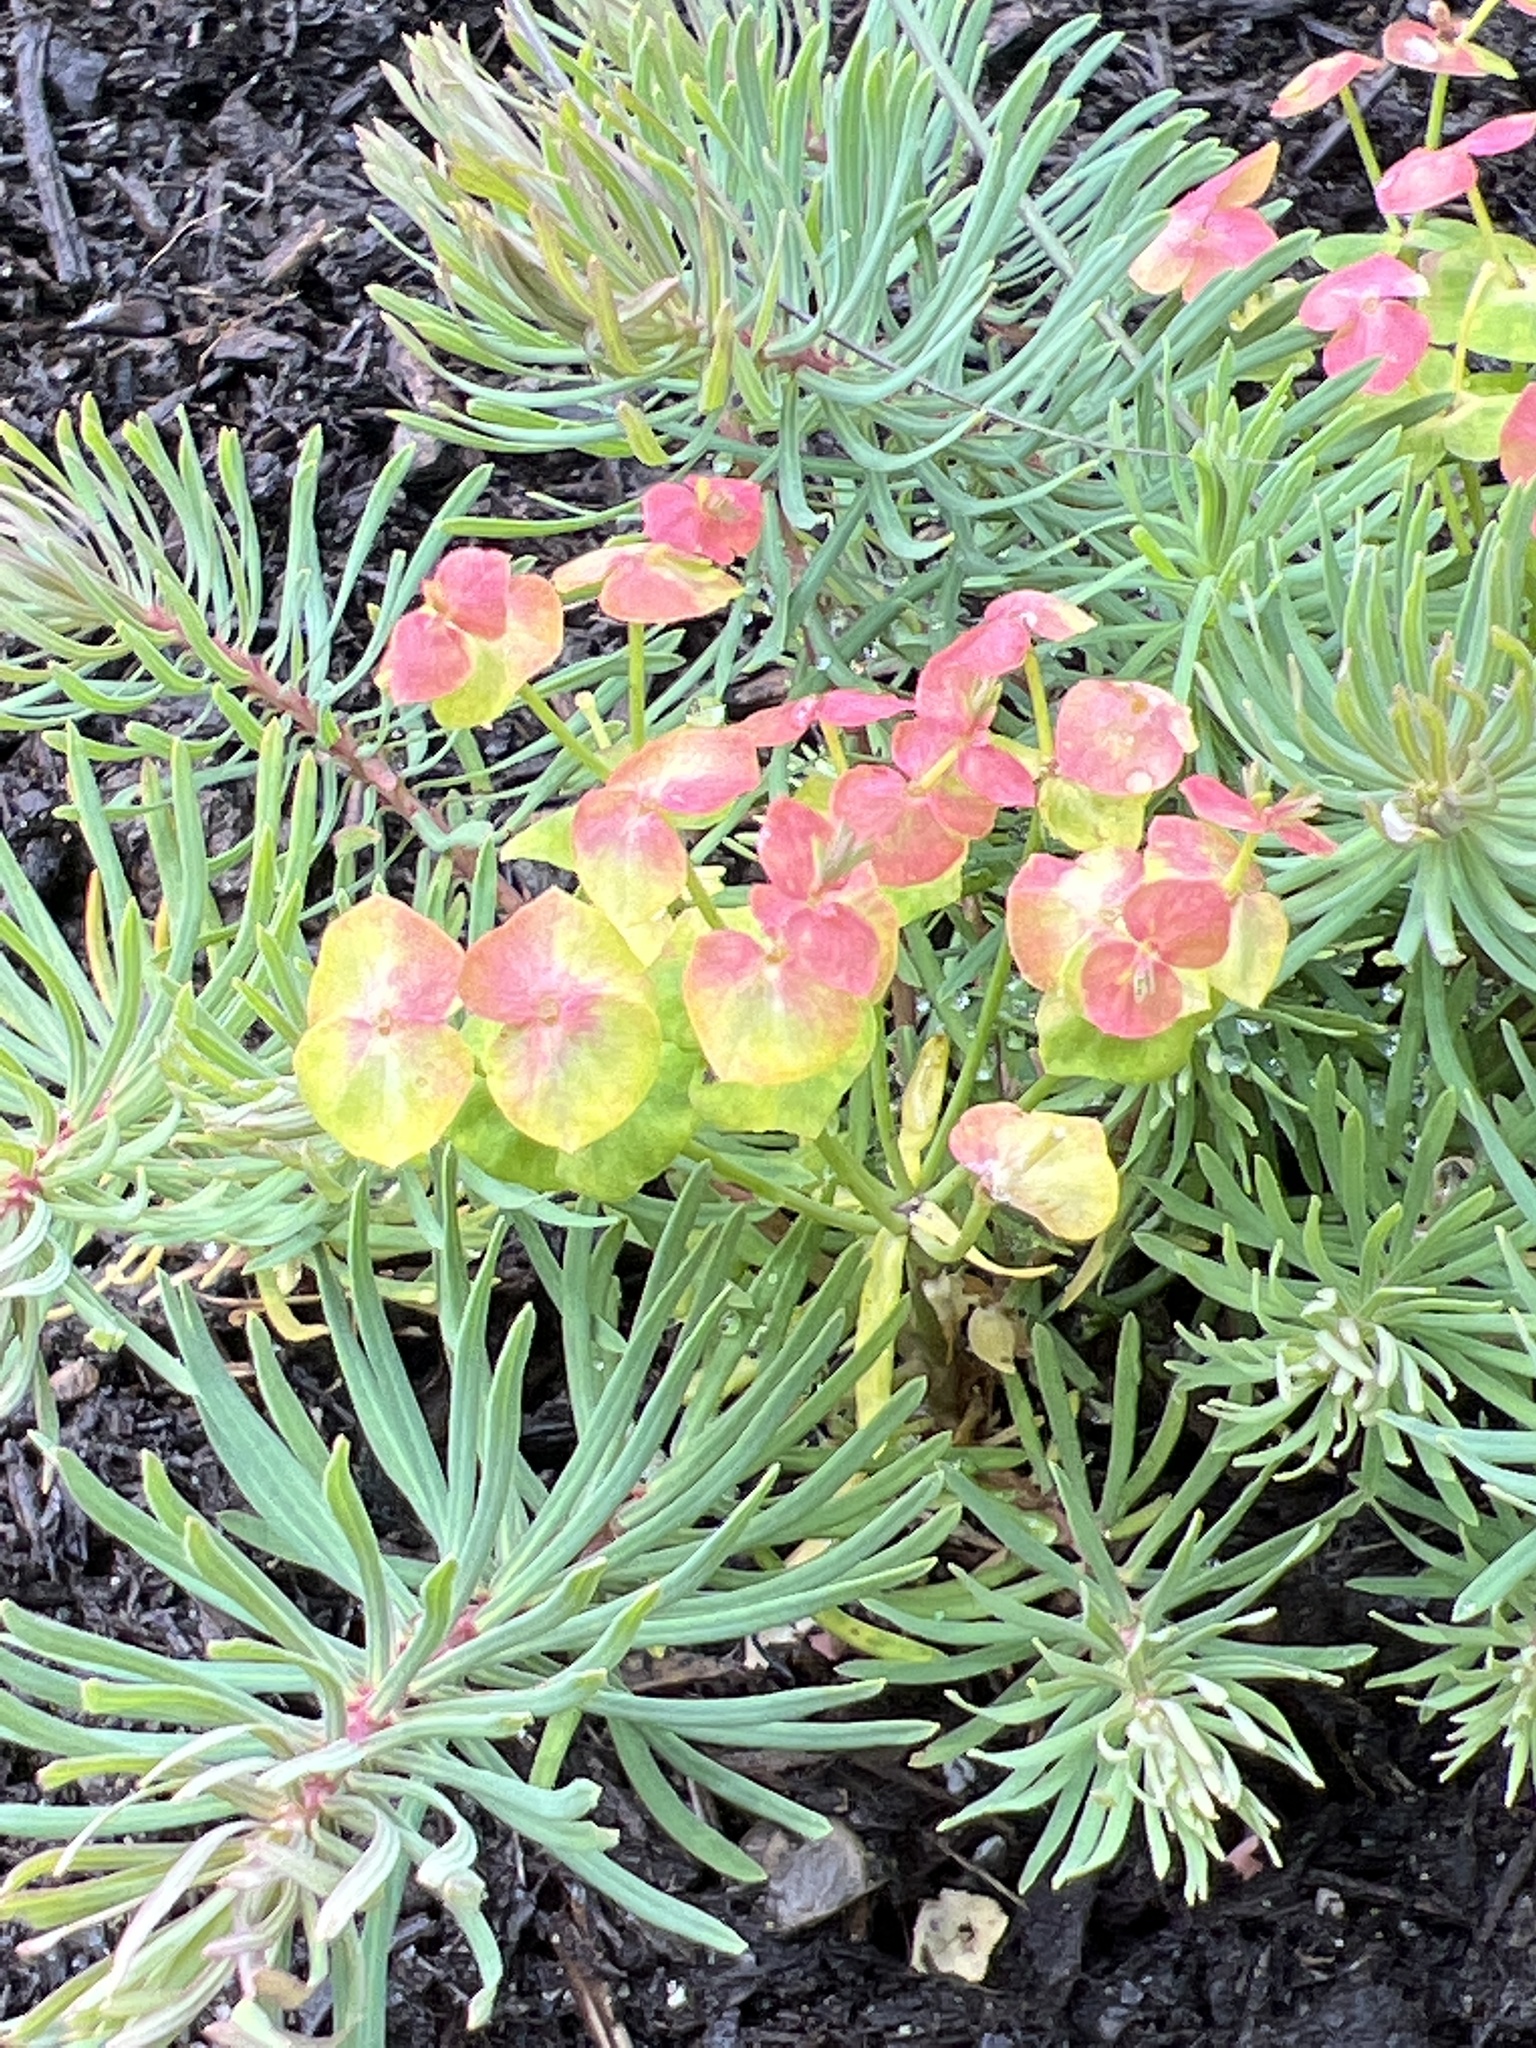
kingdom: Plantae
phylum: Tracheophyta
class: Magnoliopsida
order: Malpighiales
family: Euphorbiaceae
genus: Euphorbia
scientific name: Euphorbia cyparissias
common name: Cypress spurge
